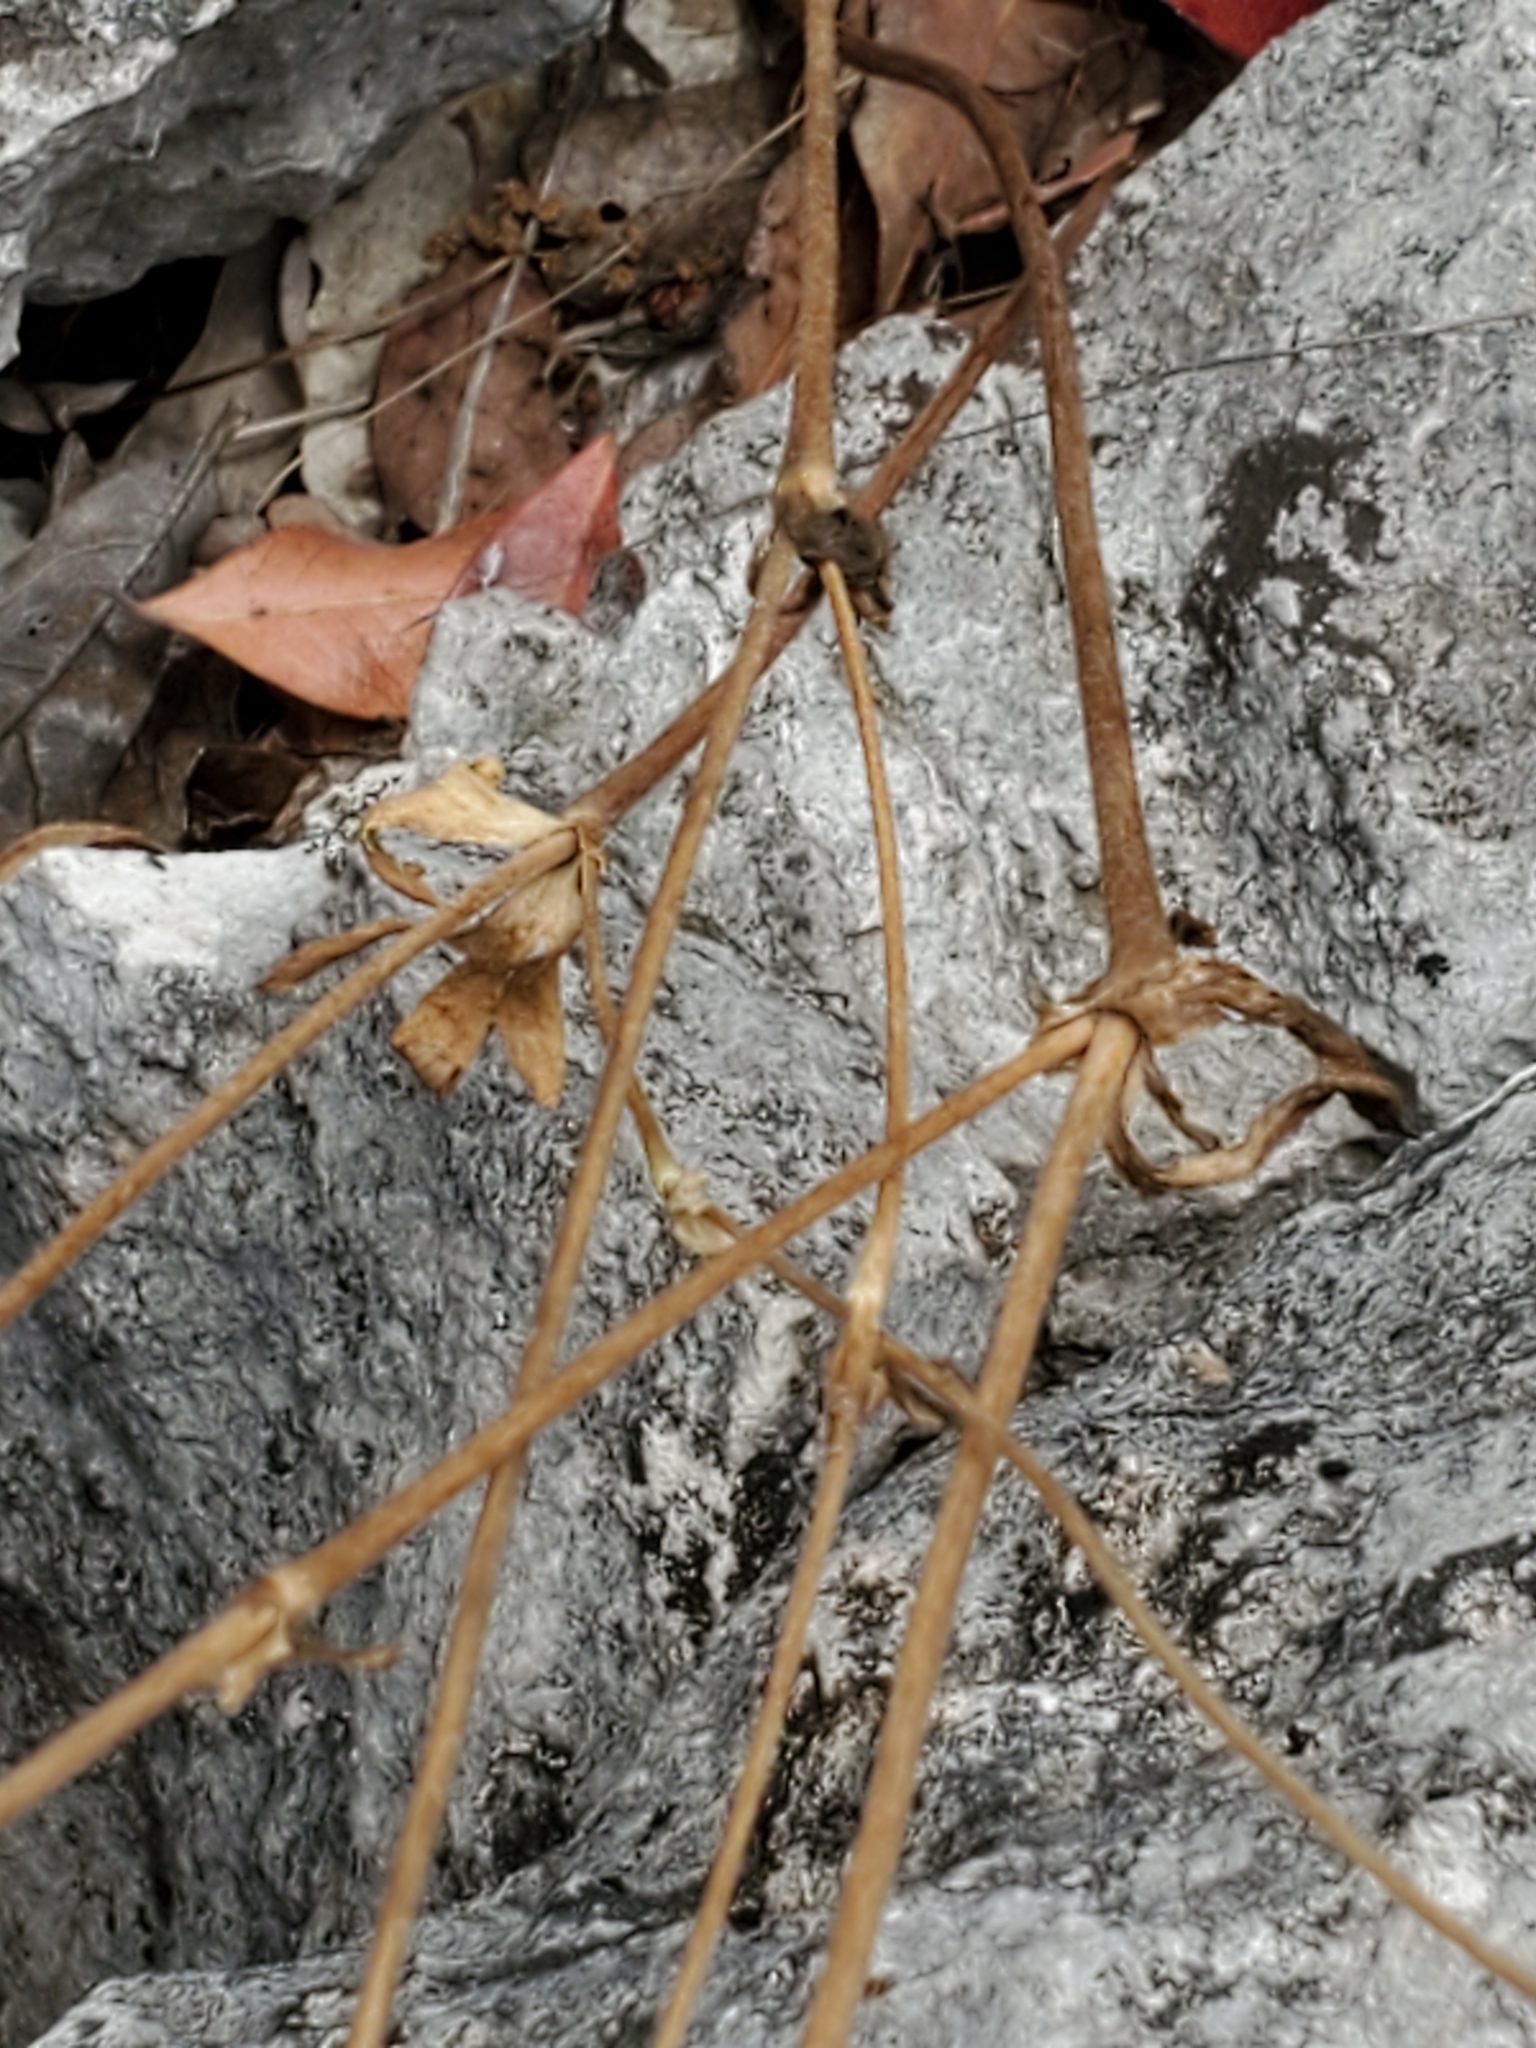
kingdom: Plantae
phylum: Tracheophyta
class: Magnoliopsida
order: Ranunculales
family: Ranunculaceae
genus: Anemone
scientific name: Anemone edwardsiana
